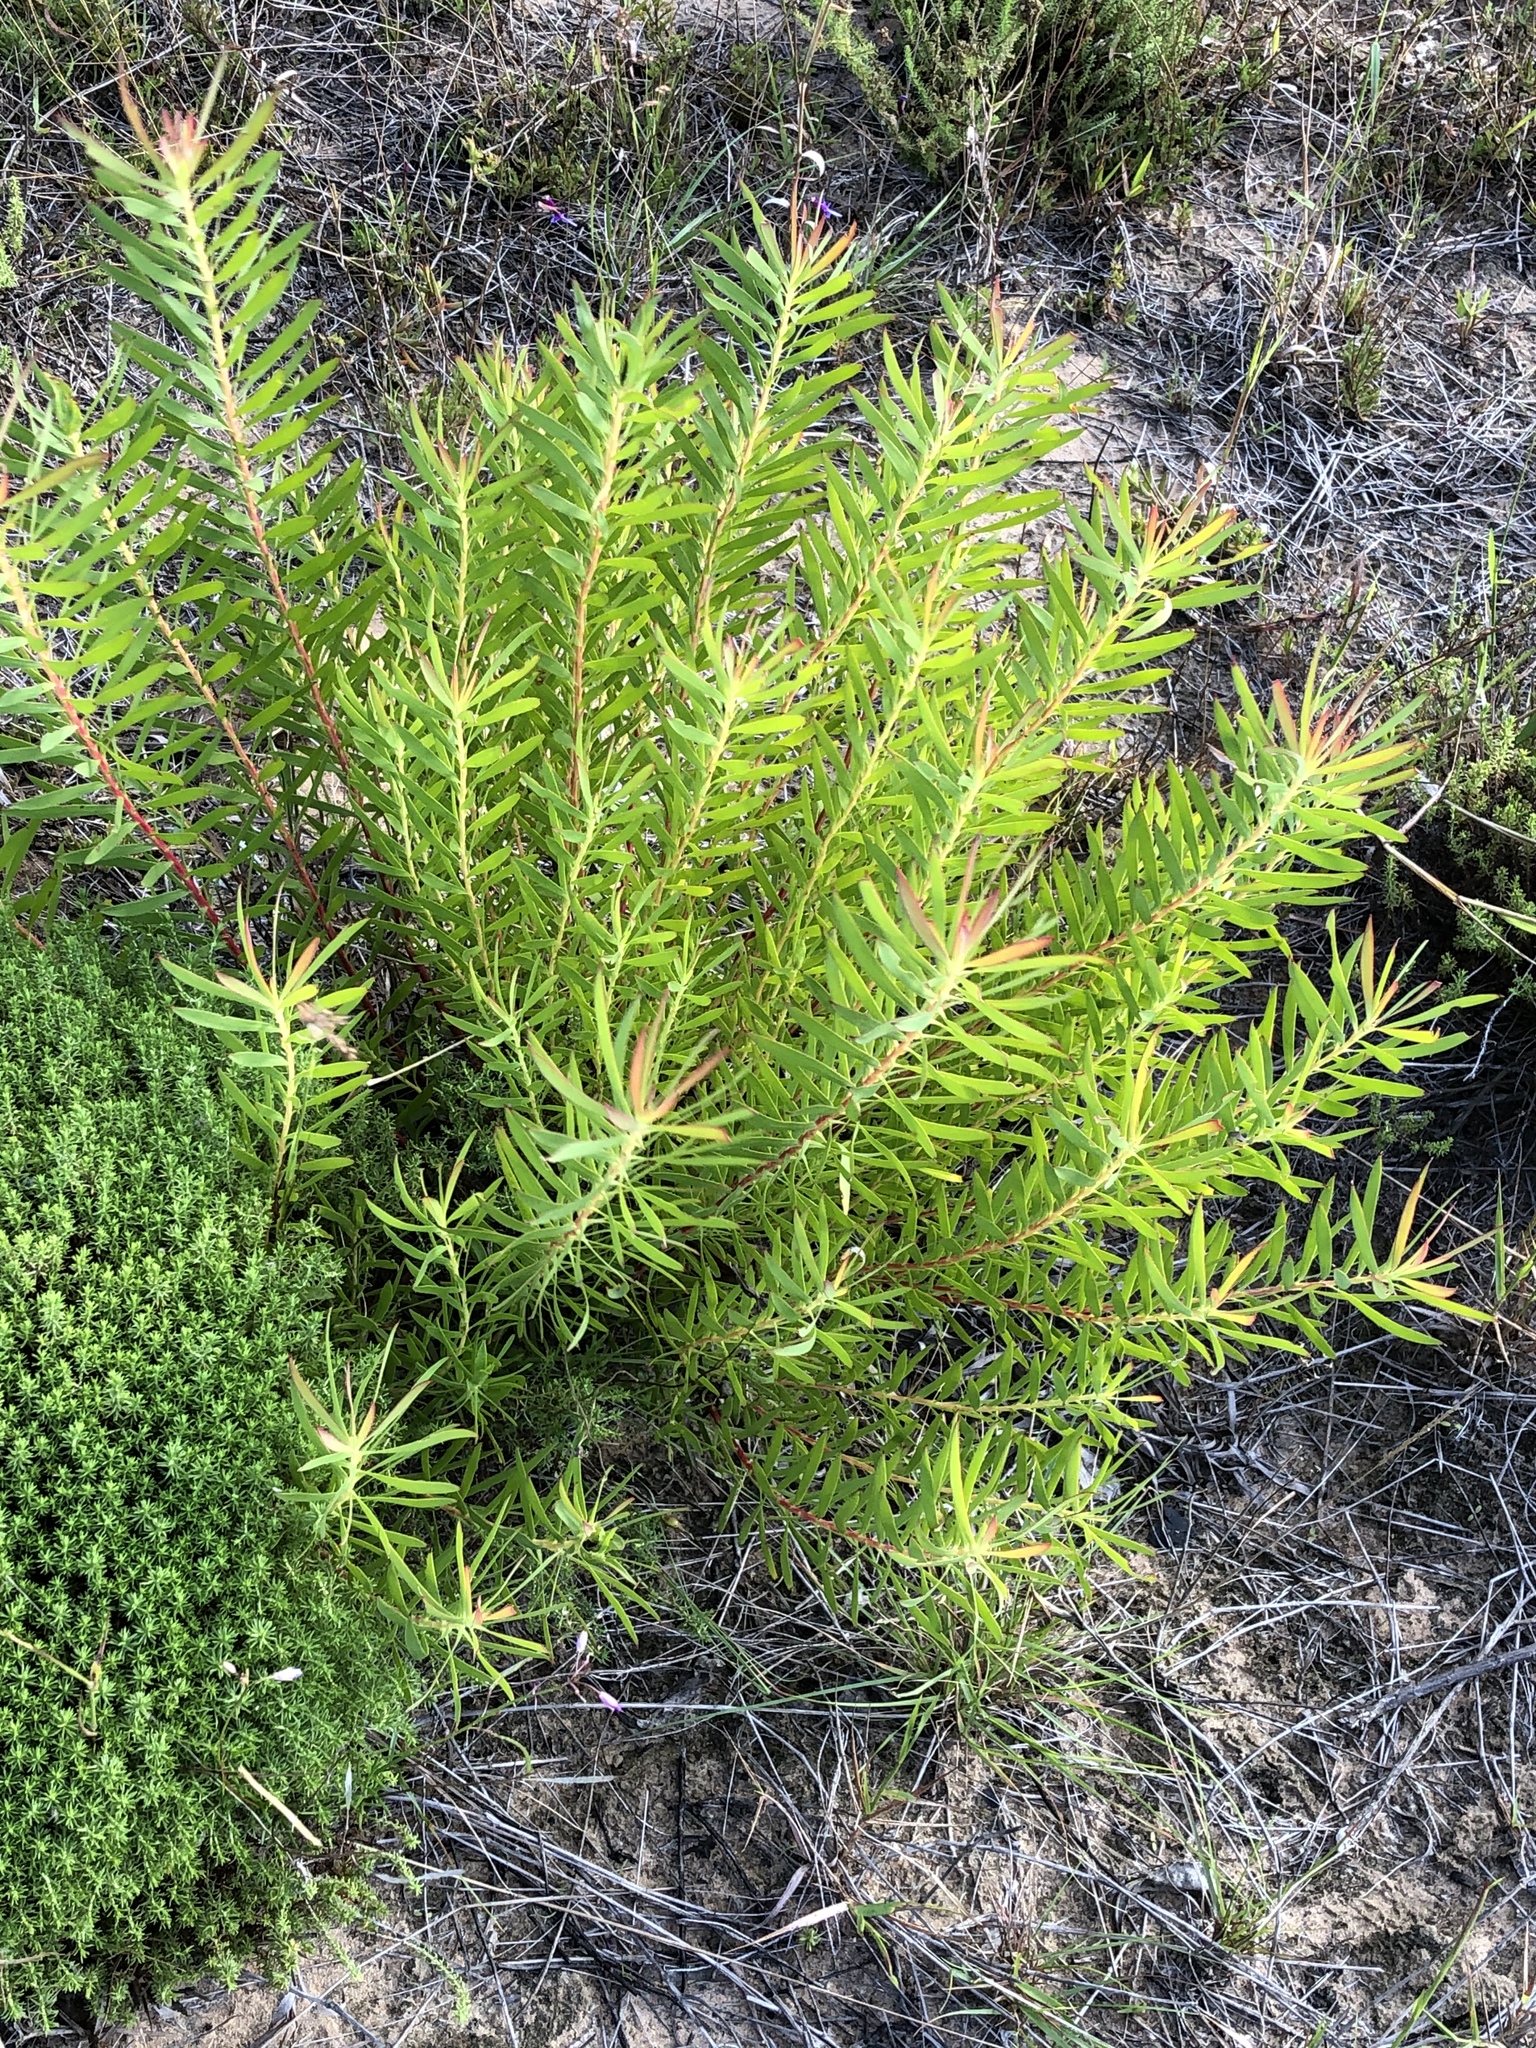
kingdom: Plantae
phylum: Tracheophyta
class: Magnoliopsida
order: Proteales
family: Proteaceae
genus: Leucadendron
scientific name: Leucadendron salignum
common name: Common sunshine conebush
